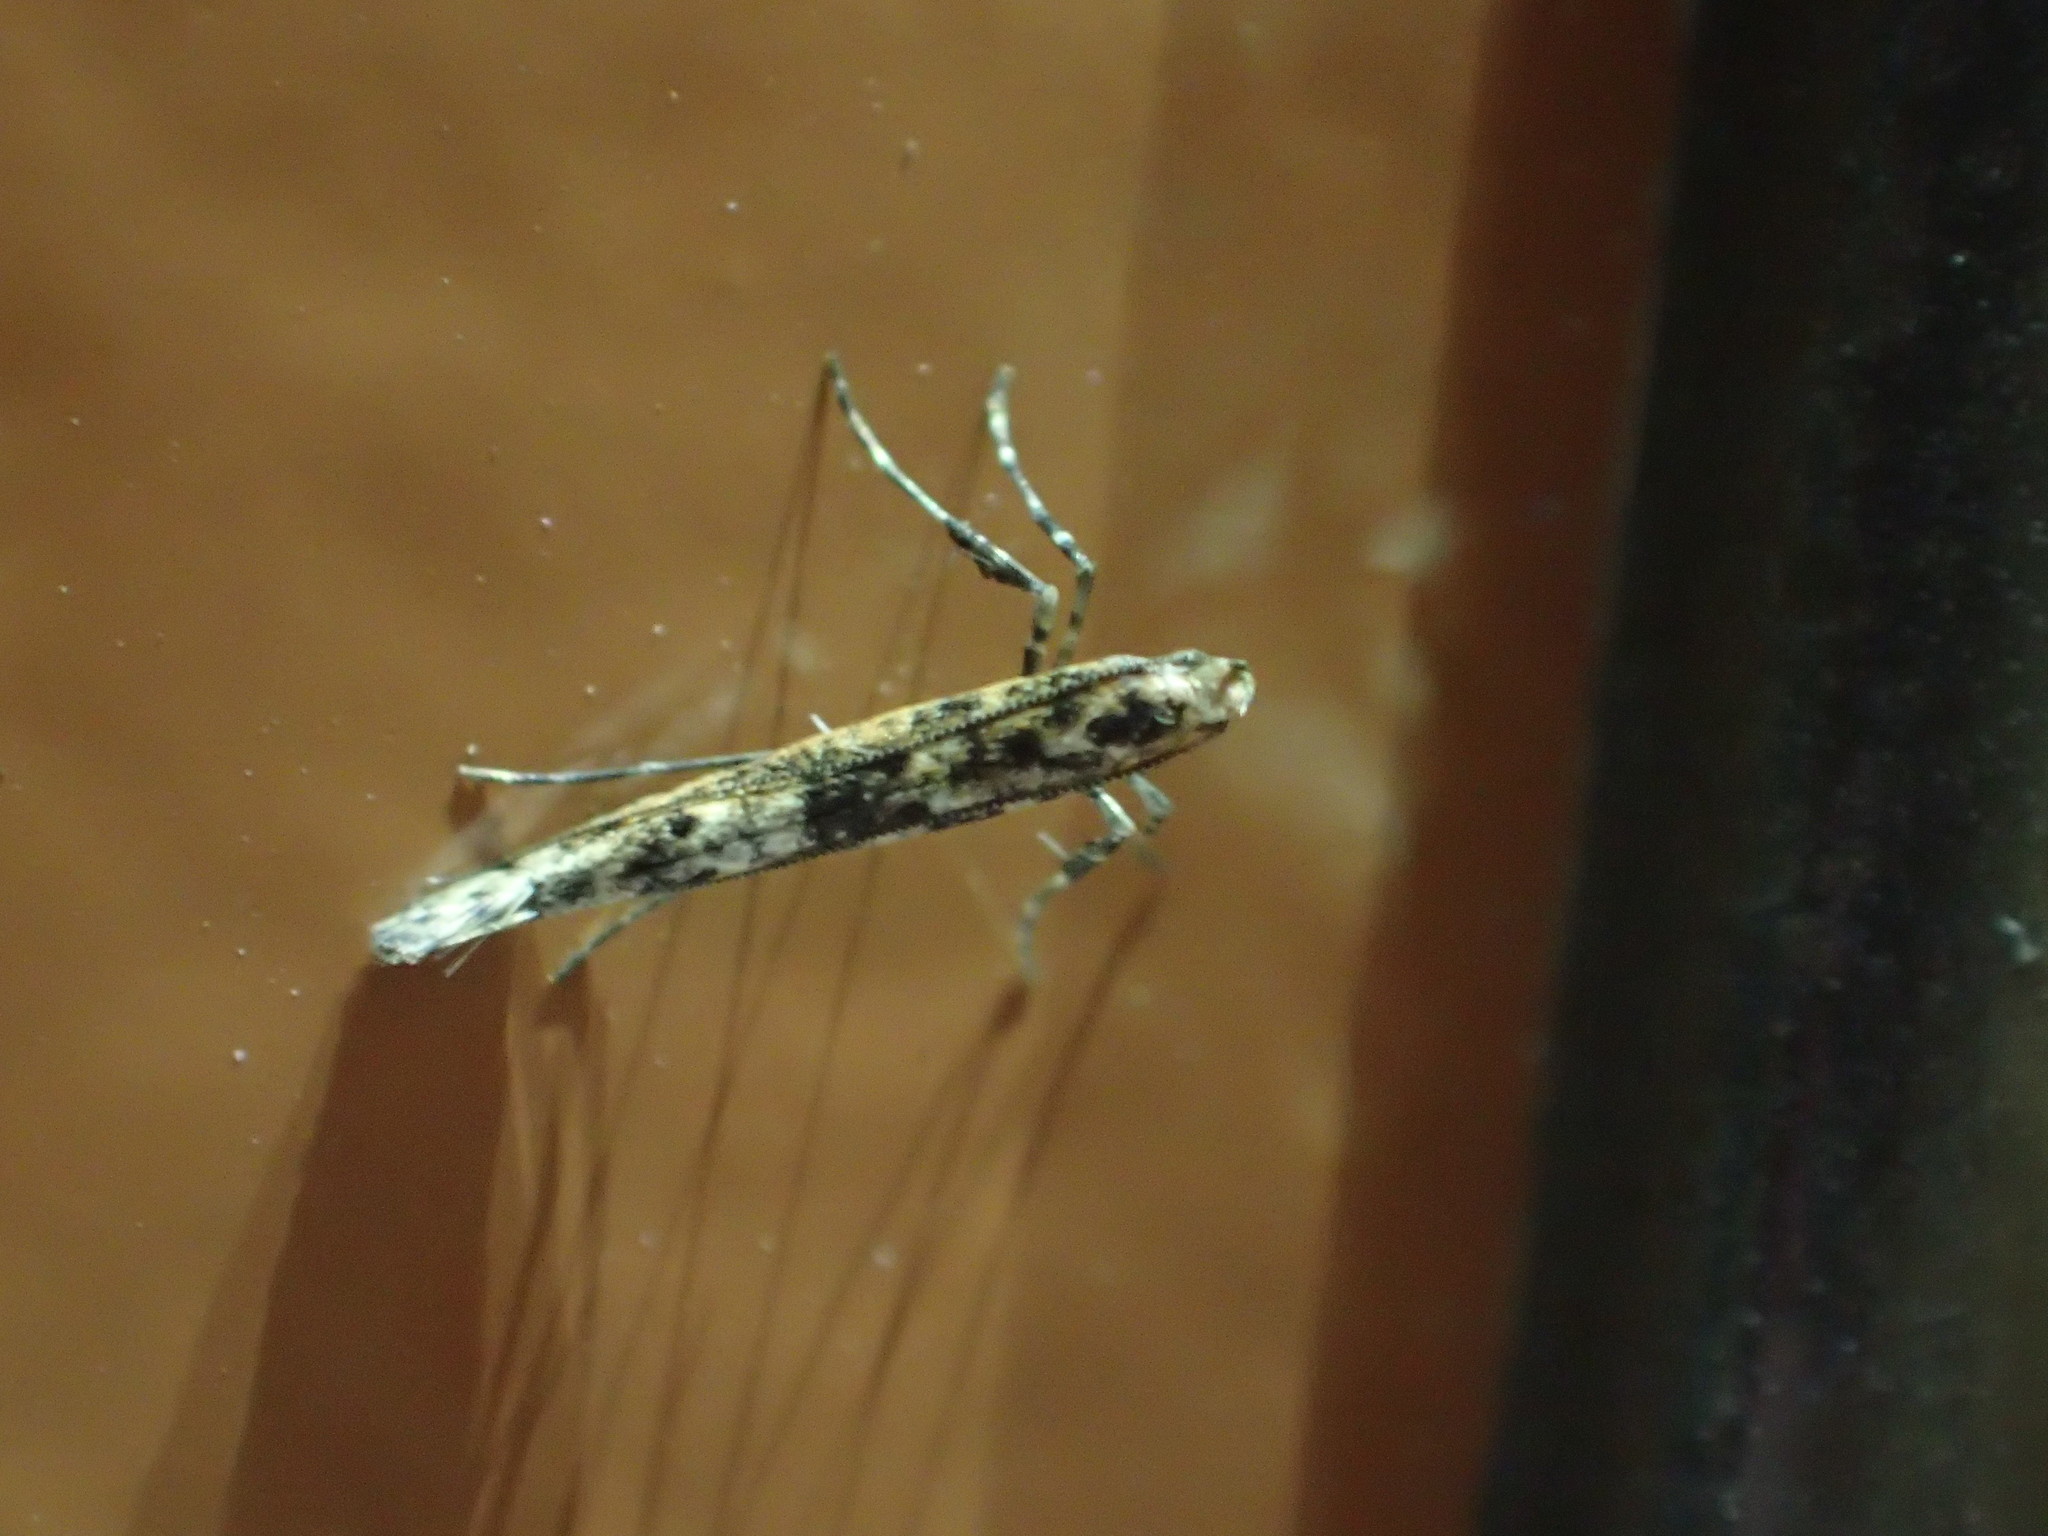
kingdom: Animalia
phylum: Arthropoda
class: Insecta
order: Lepidoptera
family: Gracillariidae
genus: Caloptilia
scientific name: Caloptilia alnivorella
